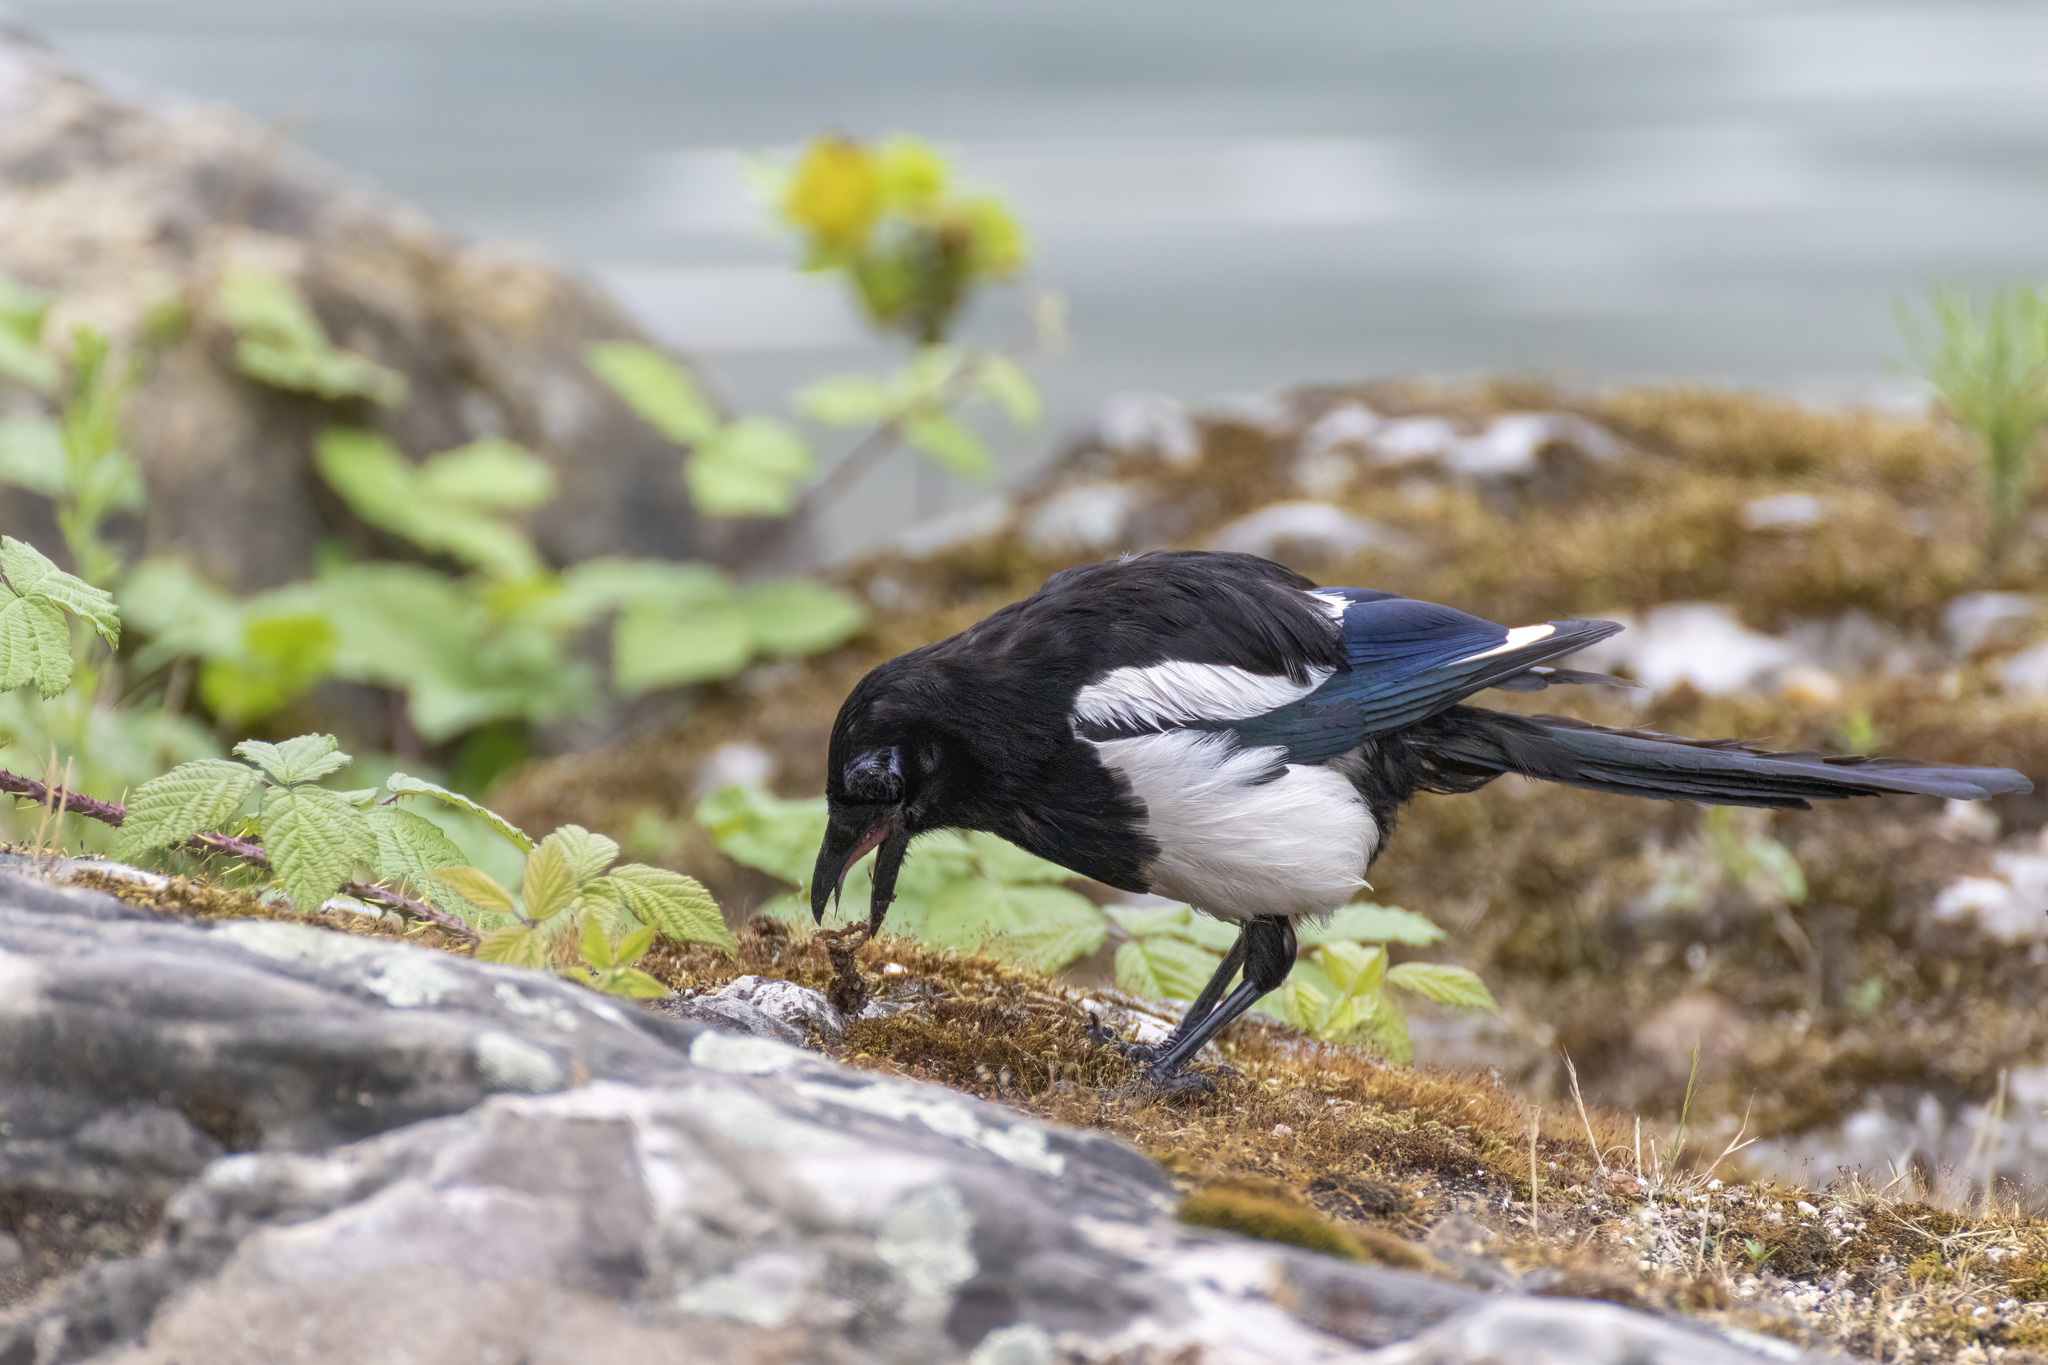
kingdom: Animalia
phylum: Chordata
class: Aves
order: Passeriformes
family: Corvidae
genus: Pica
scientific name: Pica pica
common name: Eurasian magpie
